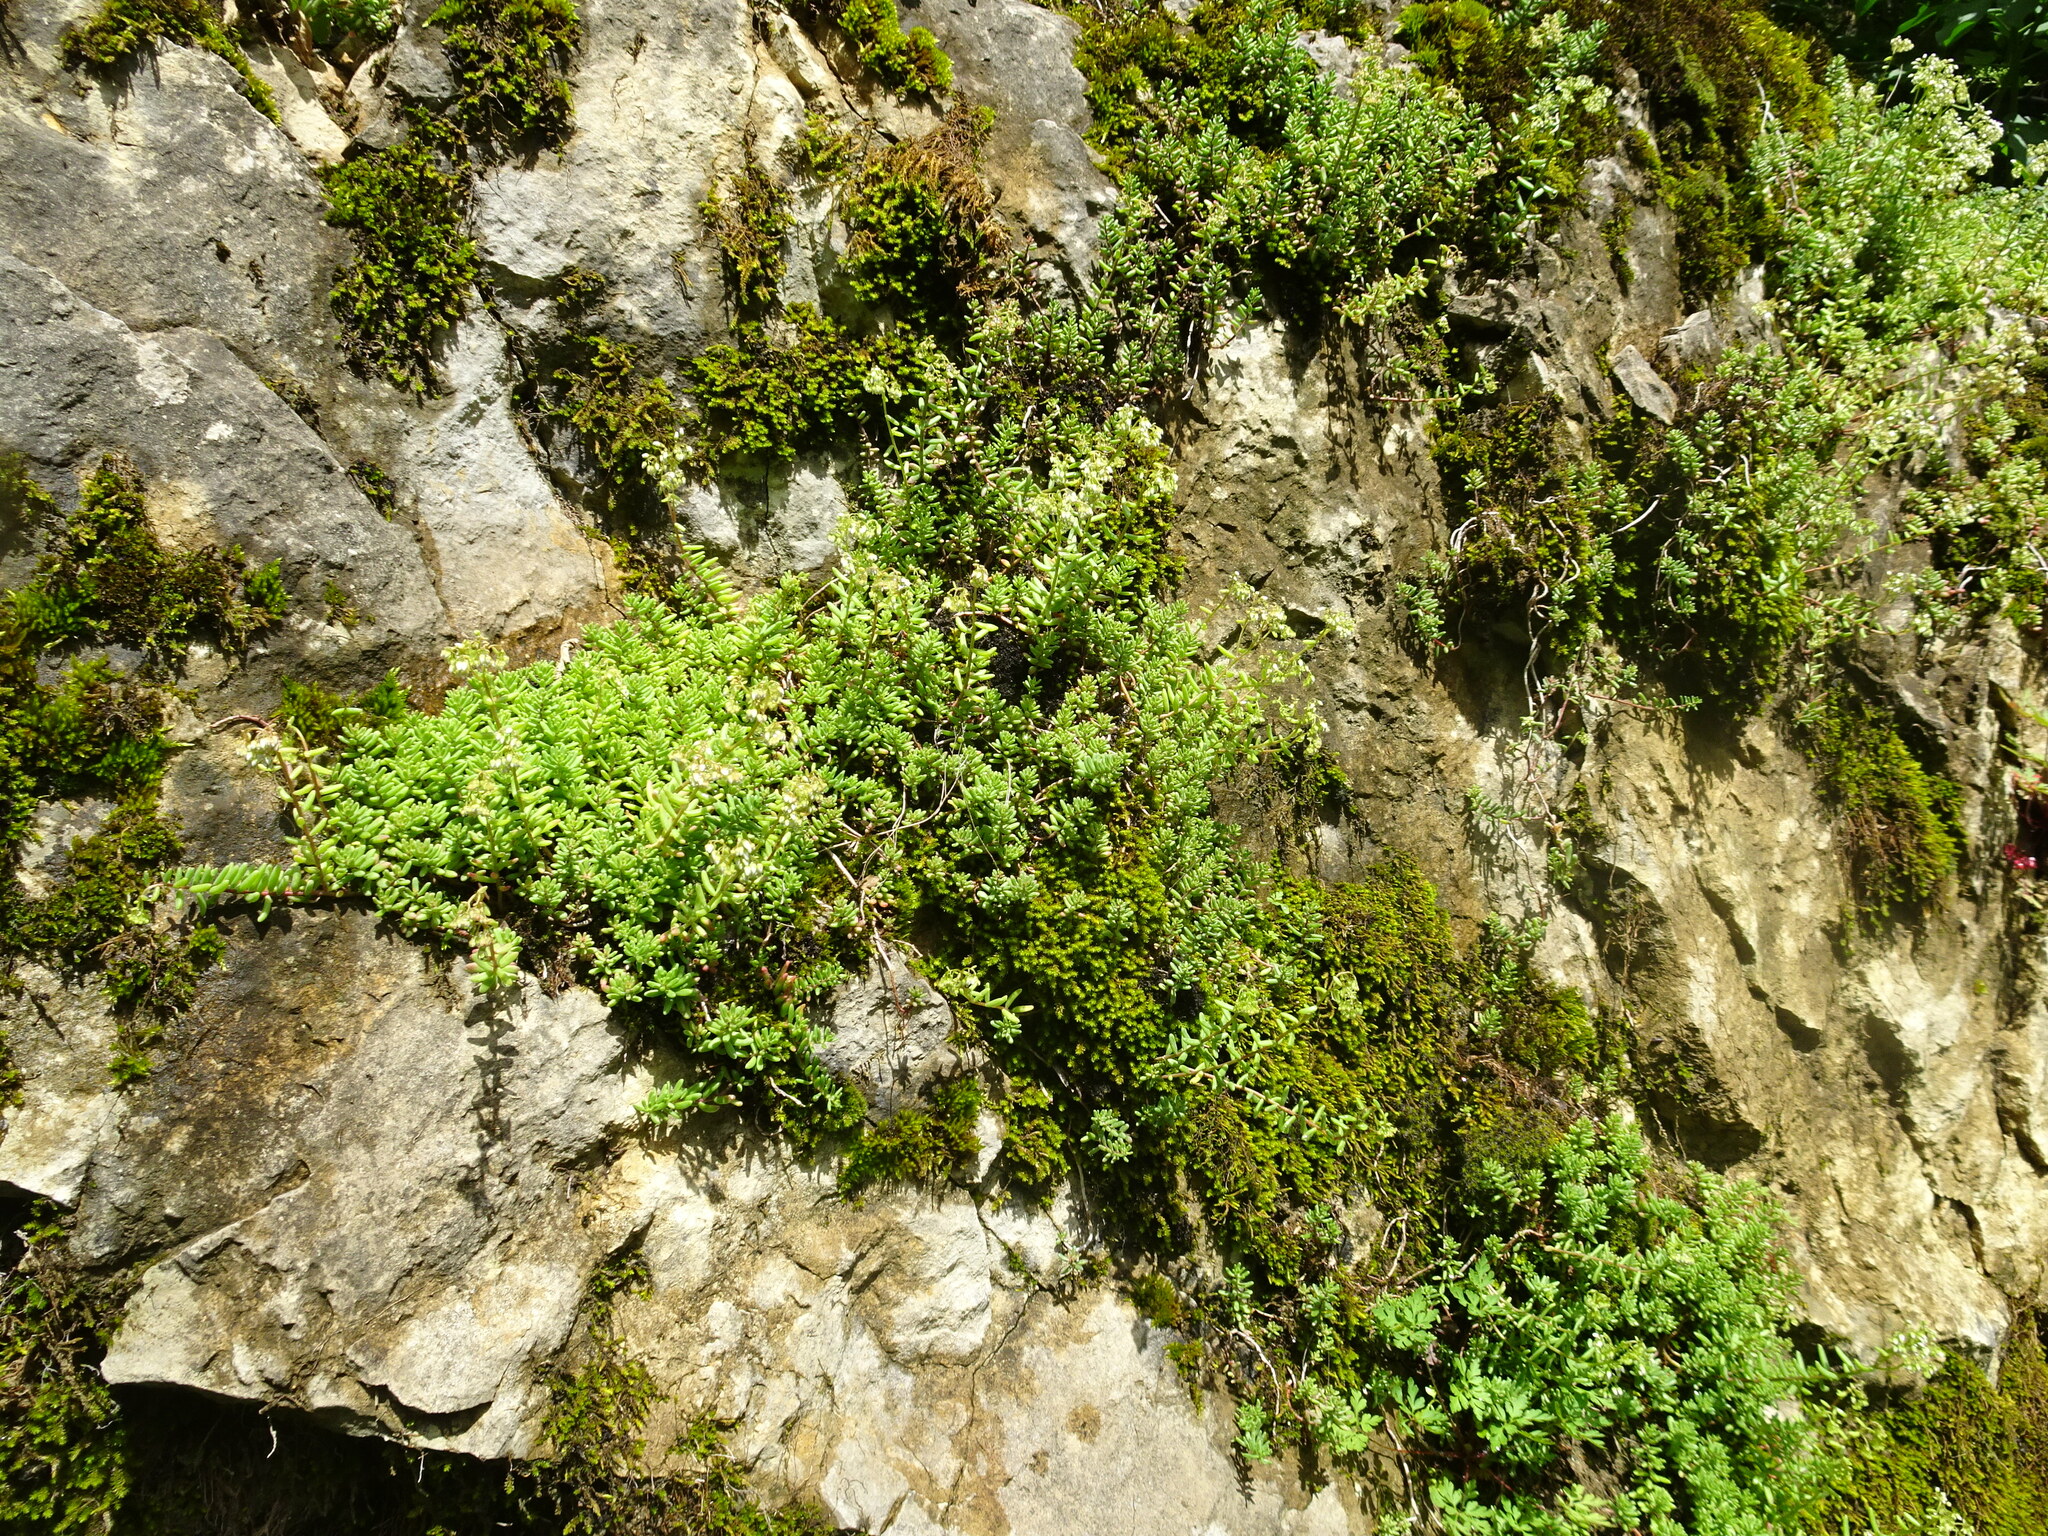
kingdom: Plantae
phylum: Tracheophyta
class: Magnoliopsida
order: Saxifragales
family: Crassulaceae
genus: Sedum
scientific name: Sedum album
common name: White stonecrop
